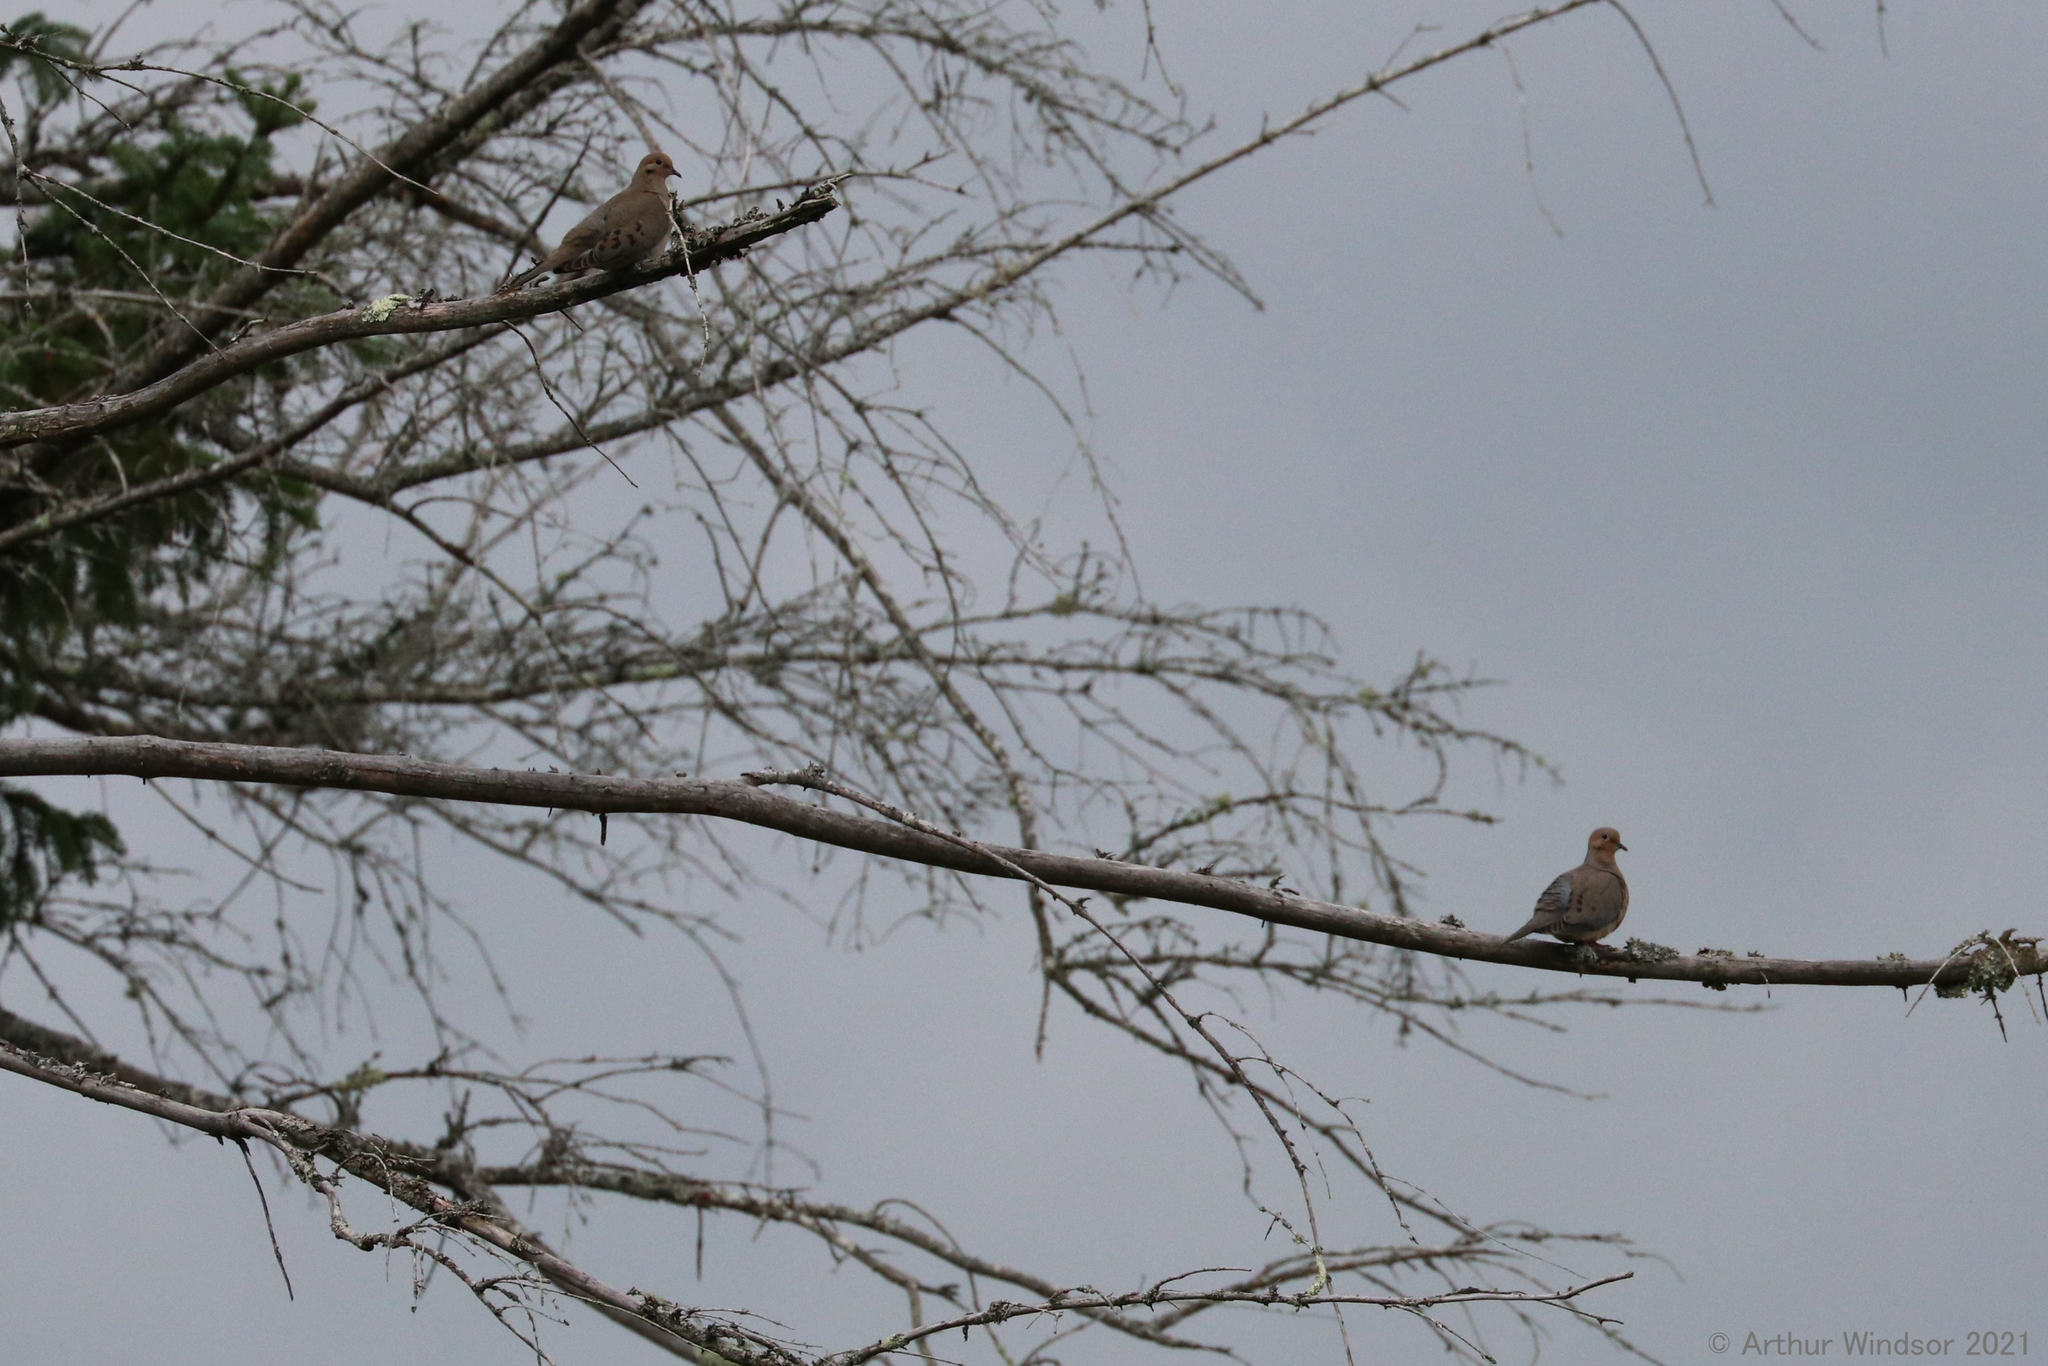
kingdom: Animalia
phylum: Chordata
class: Aves
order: Columbiformes
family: Columbidae
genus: Zenaida
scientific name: Zenaida macroura
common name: Mourning dove
